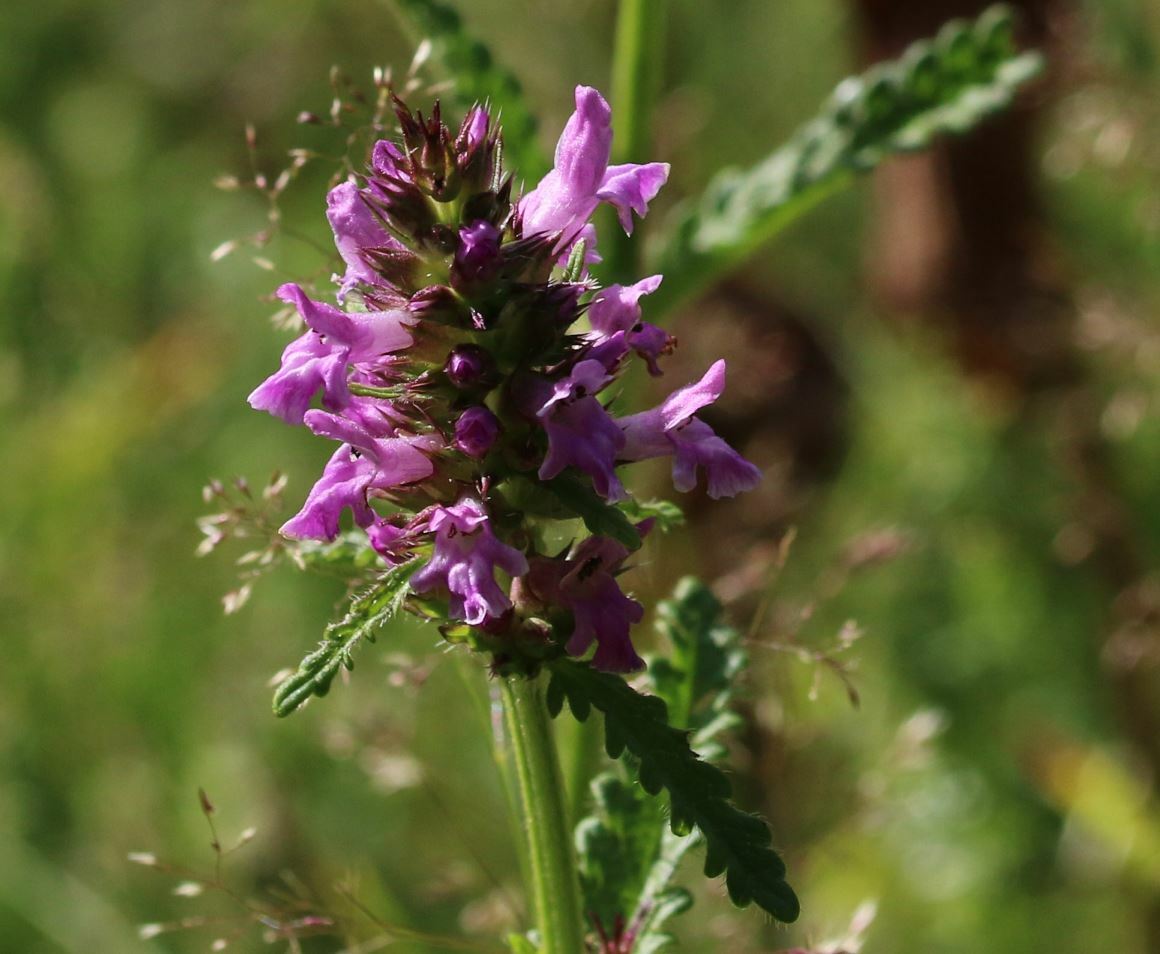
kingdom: Plantae
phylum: Tracheophyta
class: Magnoliopsida
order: Lamiales
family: Lamiaceae
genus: Betonica
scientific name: Betonica officinalis
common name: Bishop's-wort
